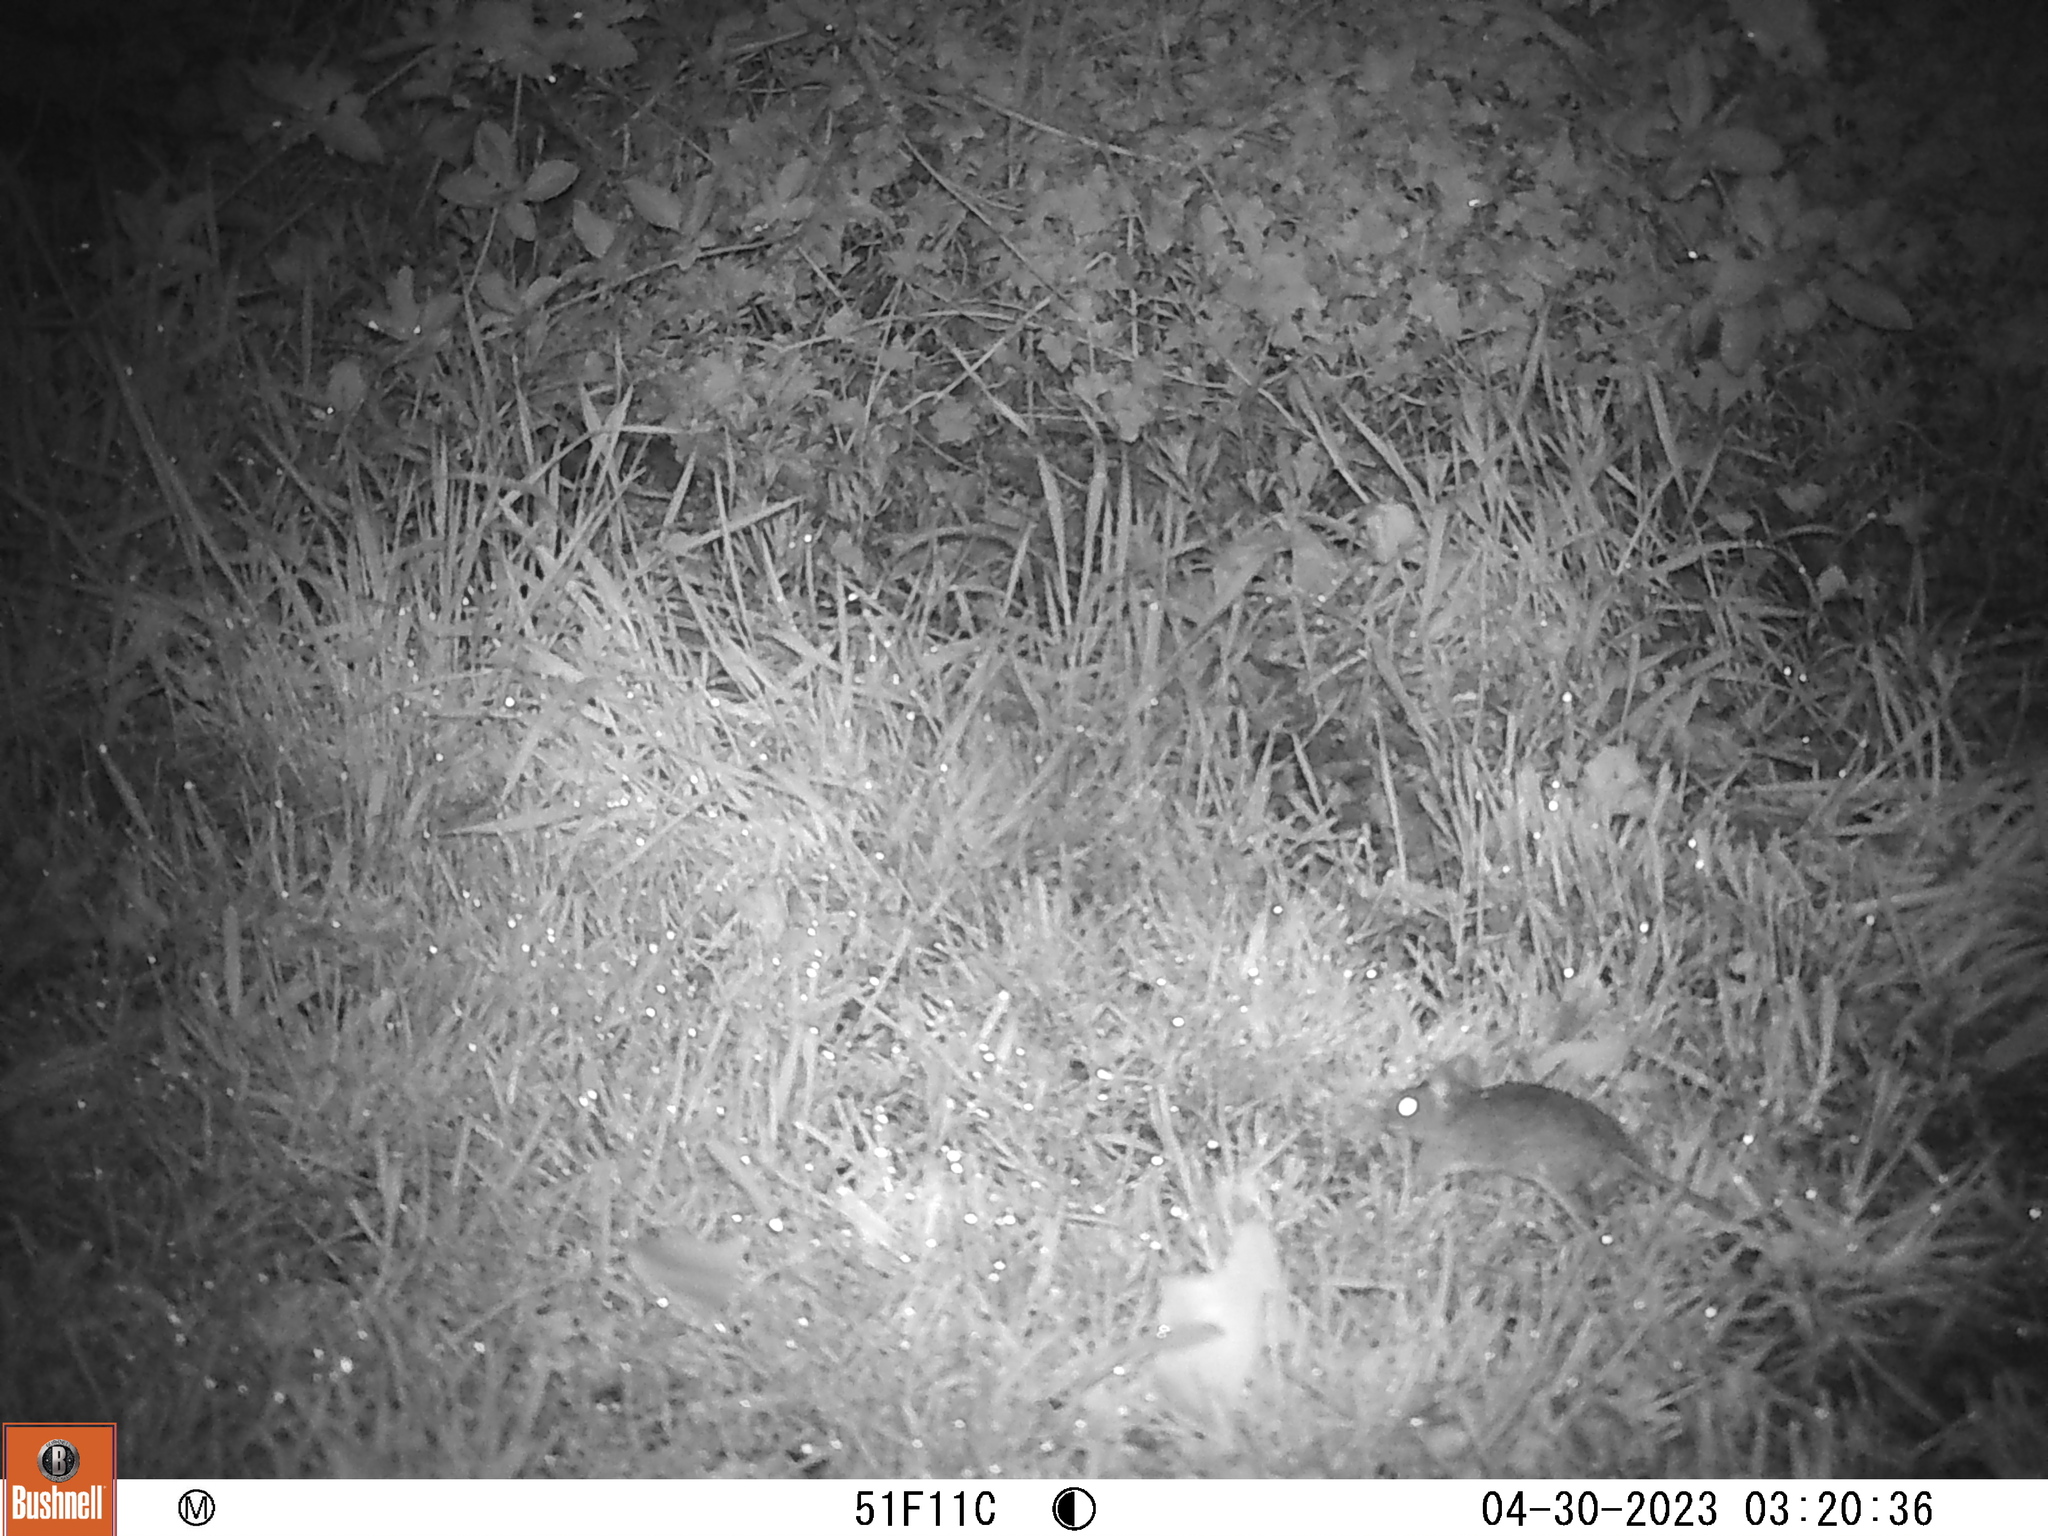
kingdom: Animalia
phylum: Chordata
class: Mammalia
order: Rodentia
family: Muridae
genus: Apodemus
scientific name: Apodemus sylvaticus
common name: Wood mouse
